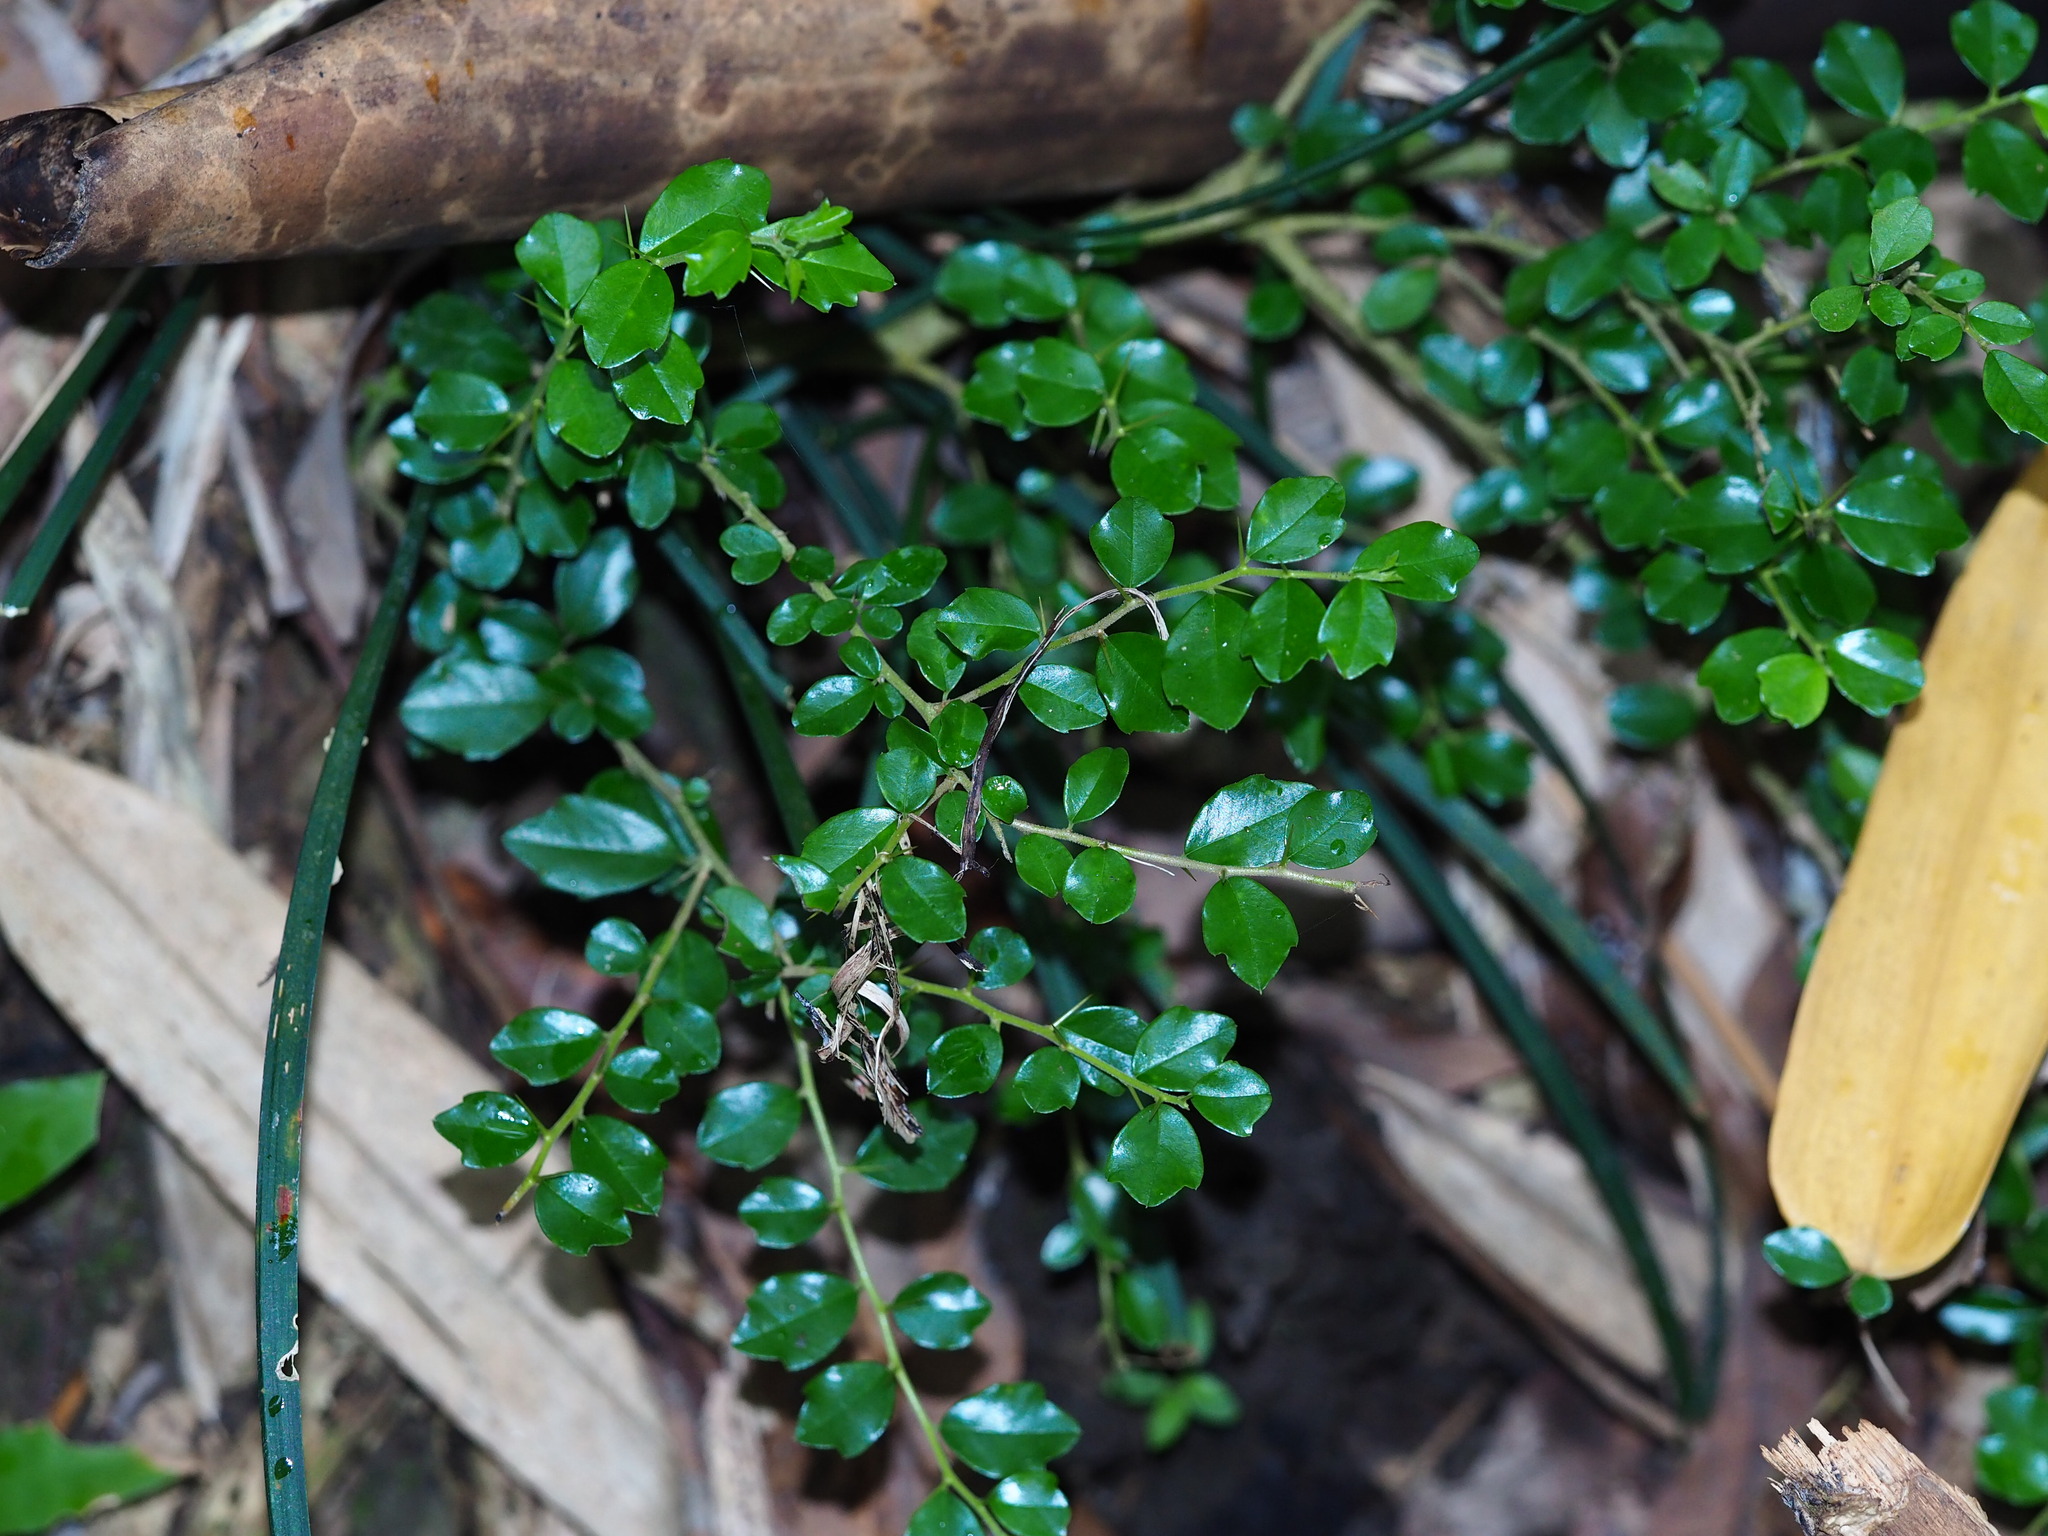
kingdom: Plantae
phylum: Tracheophyta
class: Magnoliopsida
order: Rosales
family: Moraceae
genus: Maclura
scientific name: Maclura cochinchinensis
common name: Cockspurthorn
